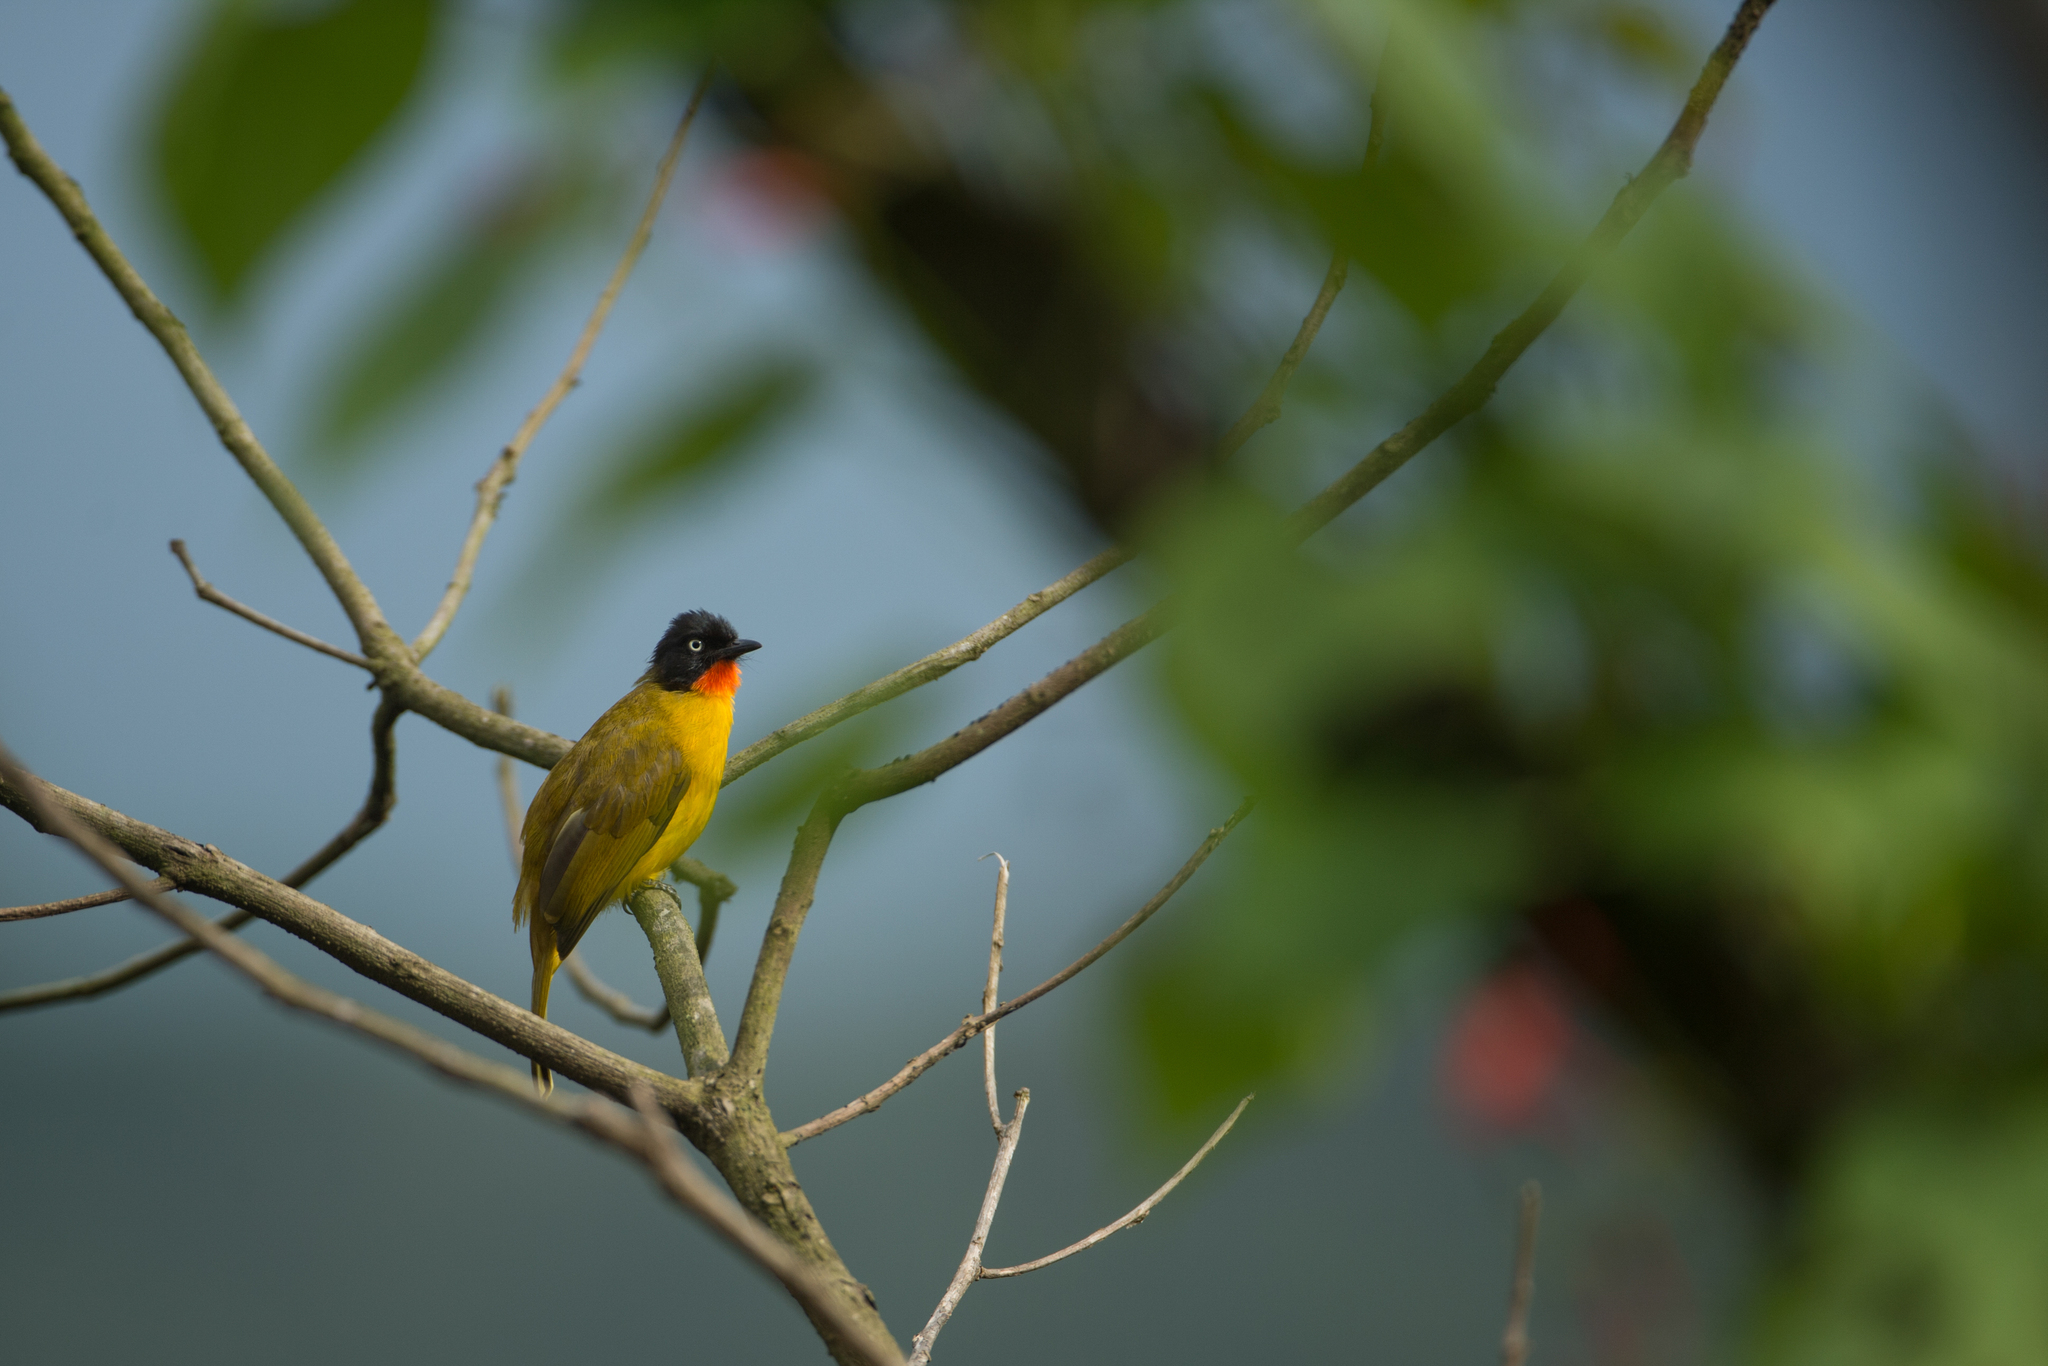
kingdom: Animalia
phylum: Chordata
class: Aves
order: Passeriformes
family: Pycnonotidae
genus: Pycnonotus
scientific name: Pycnonotus gularis
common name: Flame-throated bulbul
